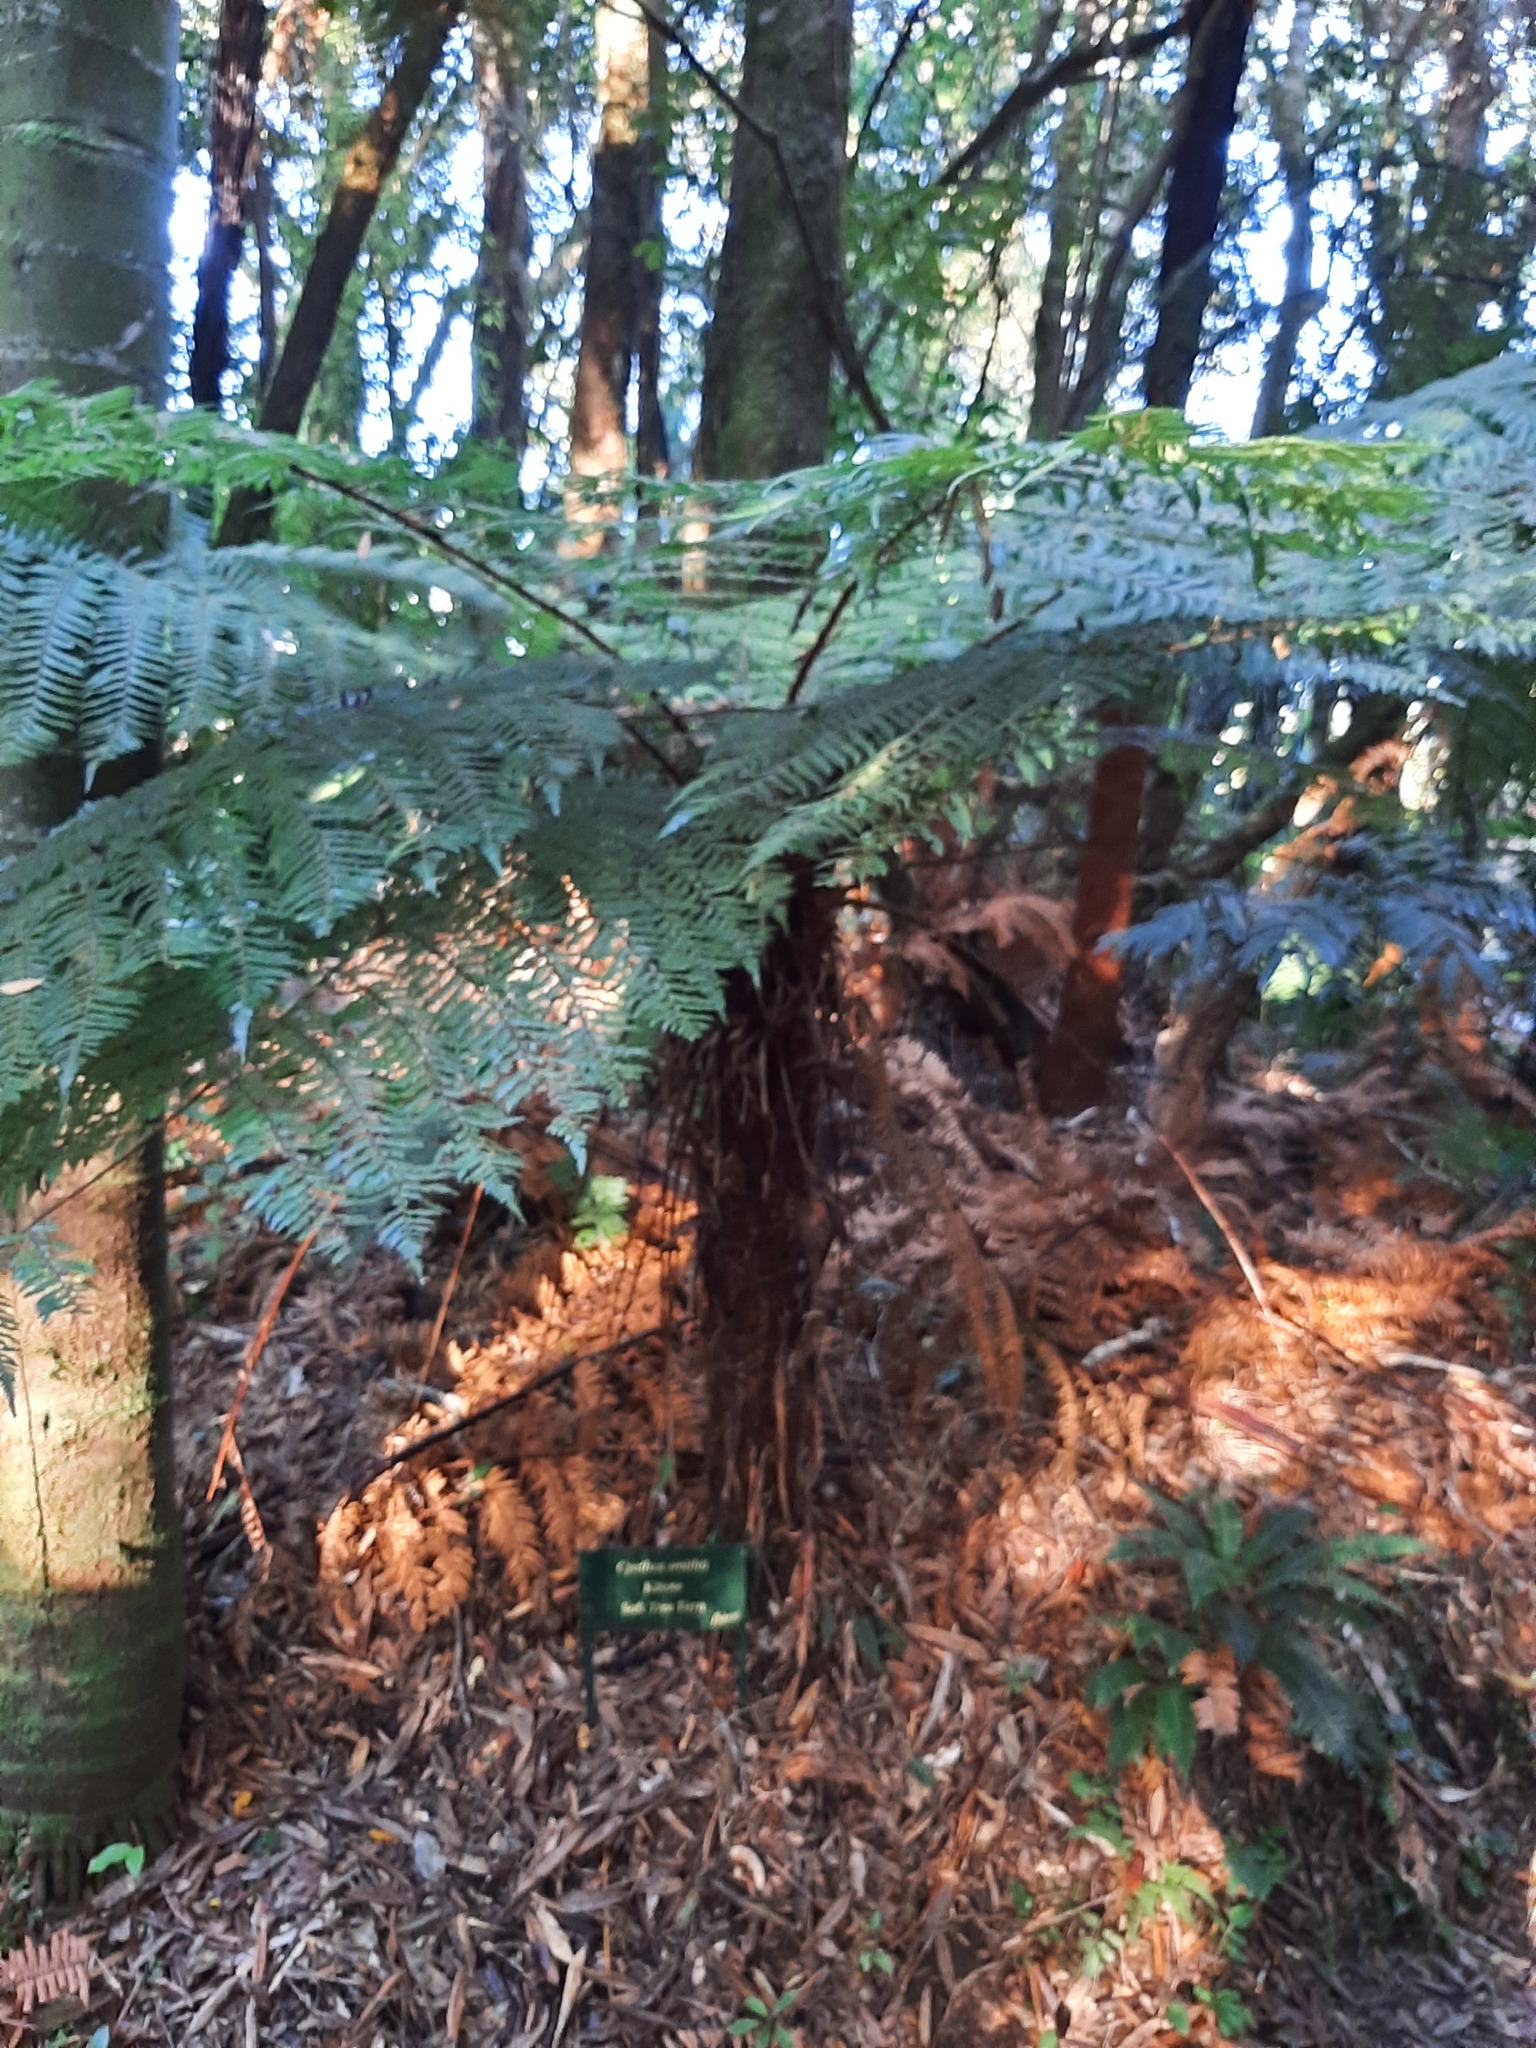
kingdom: Plantae
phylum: Tracheophyta
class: Polypodiopsida
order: Cyatheales
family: Cyatheaceae
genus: Alsophila
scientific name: Alsophila smithii
